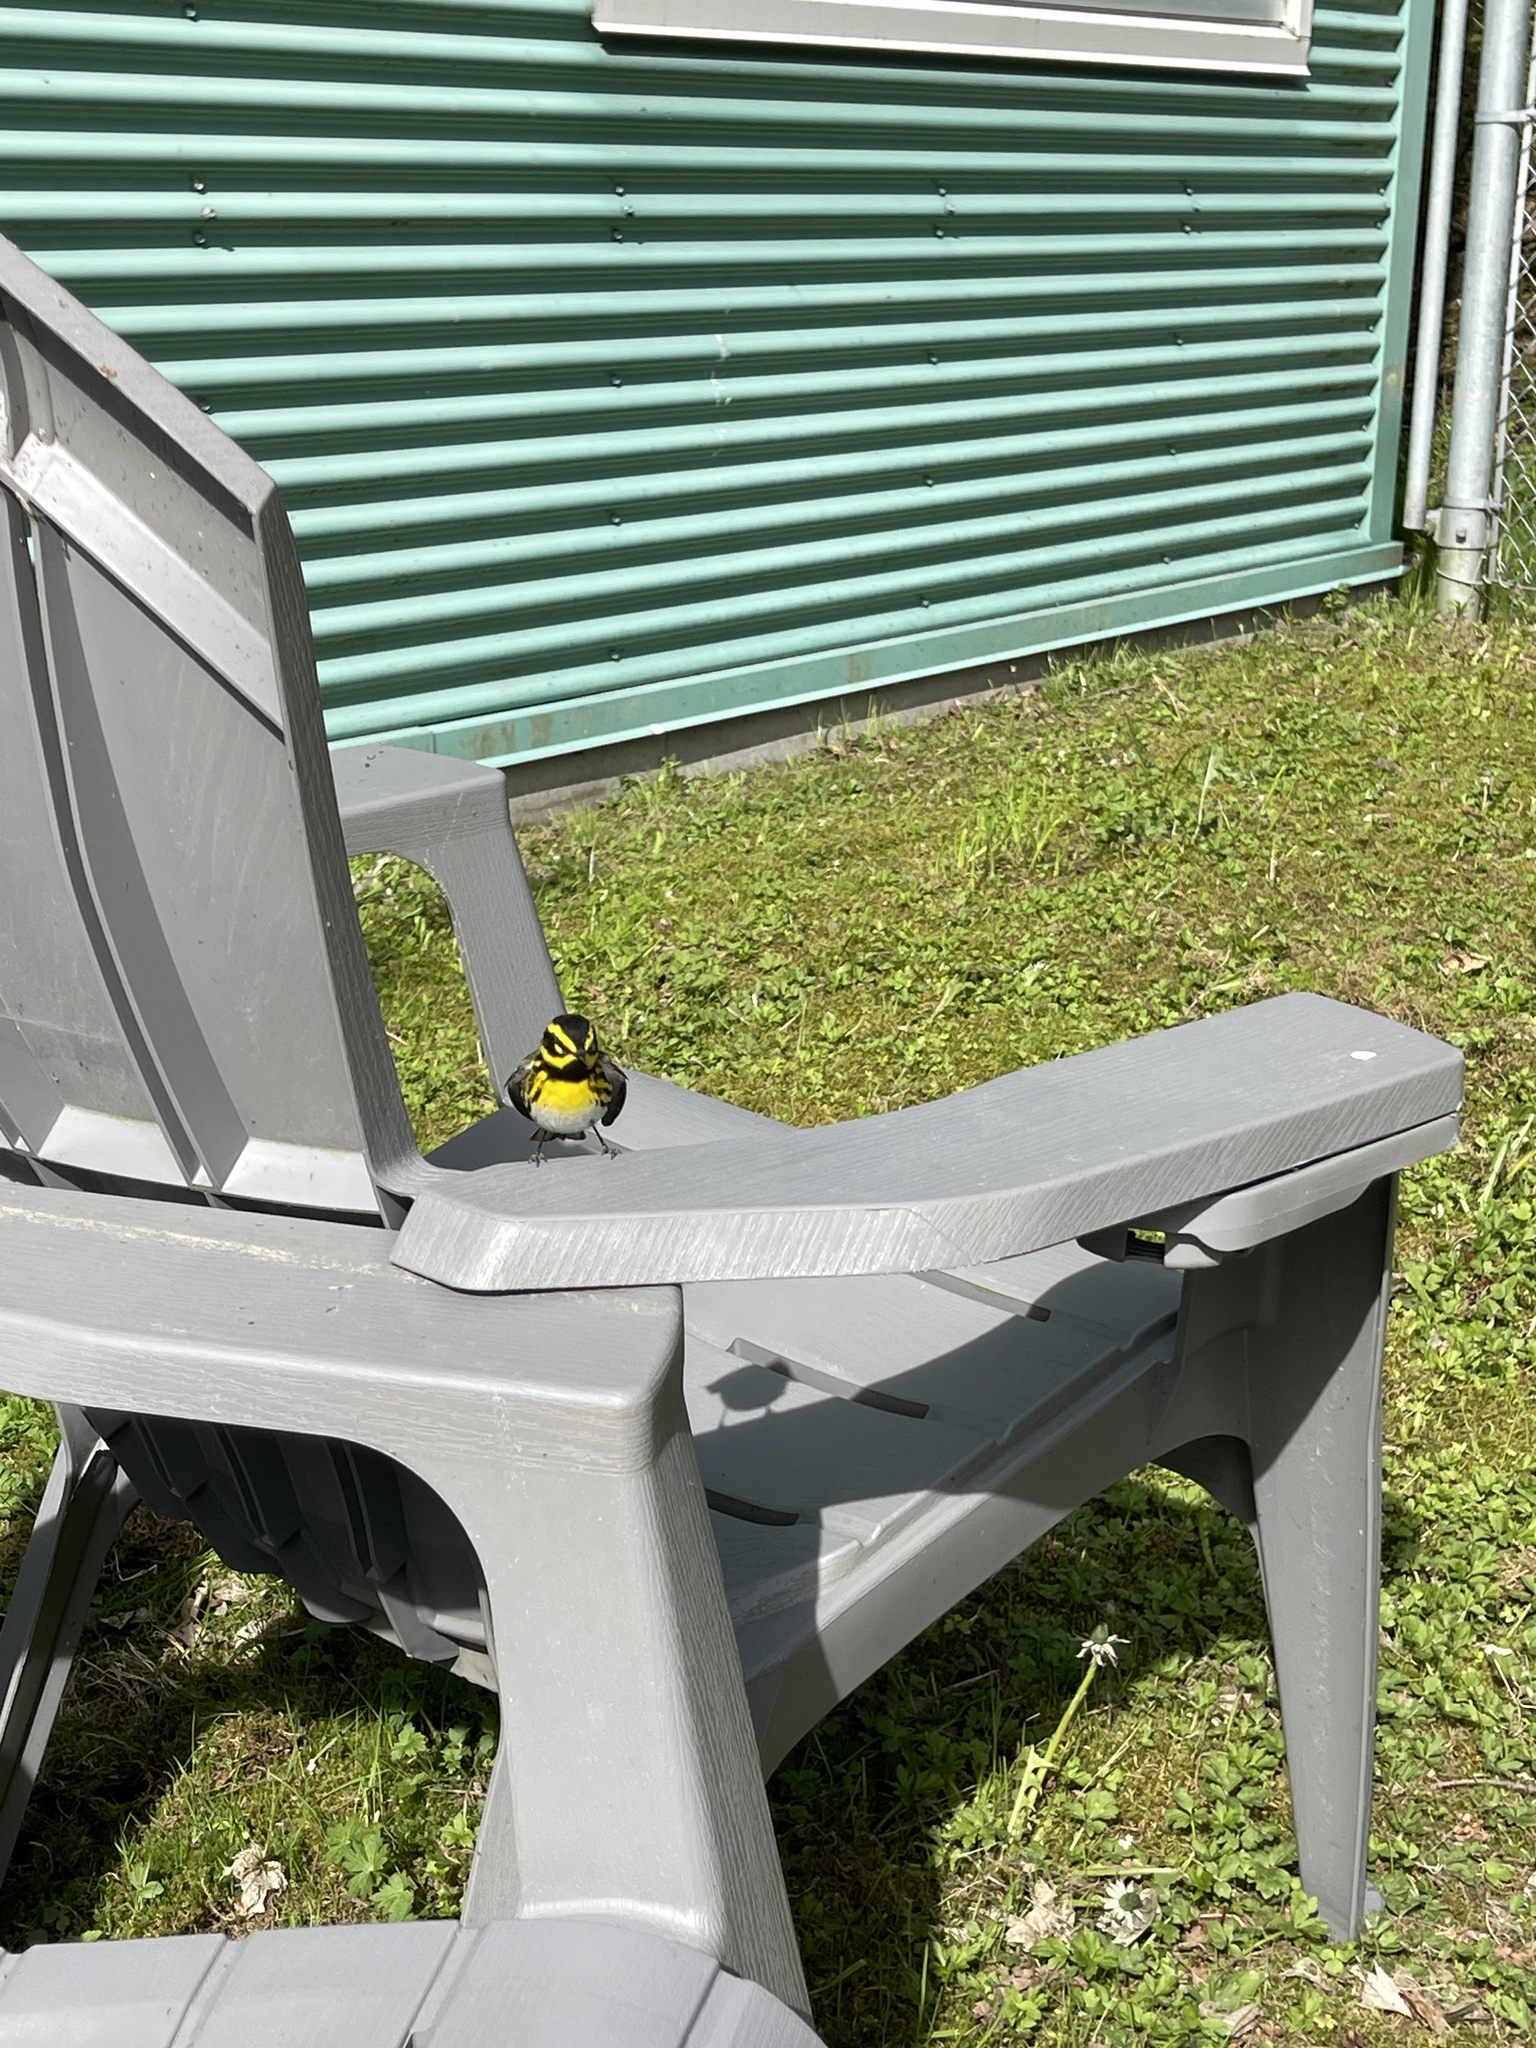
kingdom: Animalia
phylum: Chordata
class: Aves
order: Passeriformes
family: Parulidae
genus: Setophaga
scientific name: Setophaga townsendi
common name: Townsend's warbler
